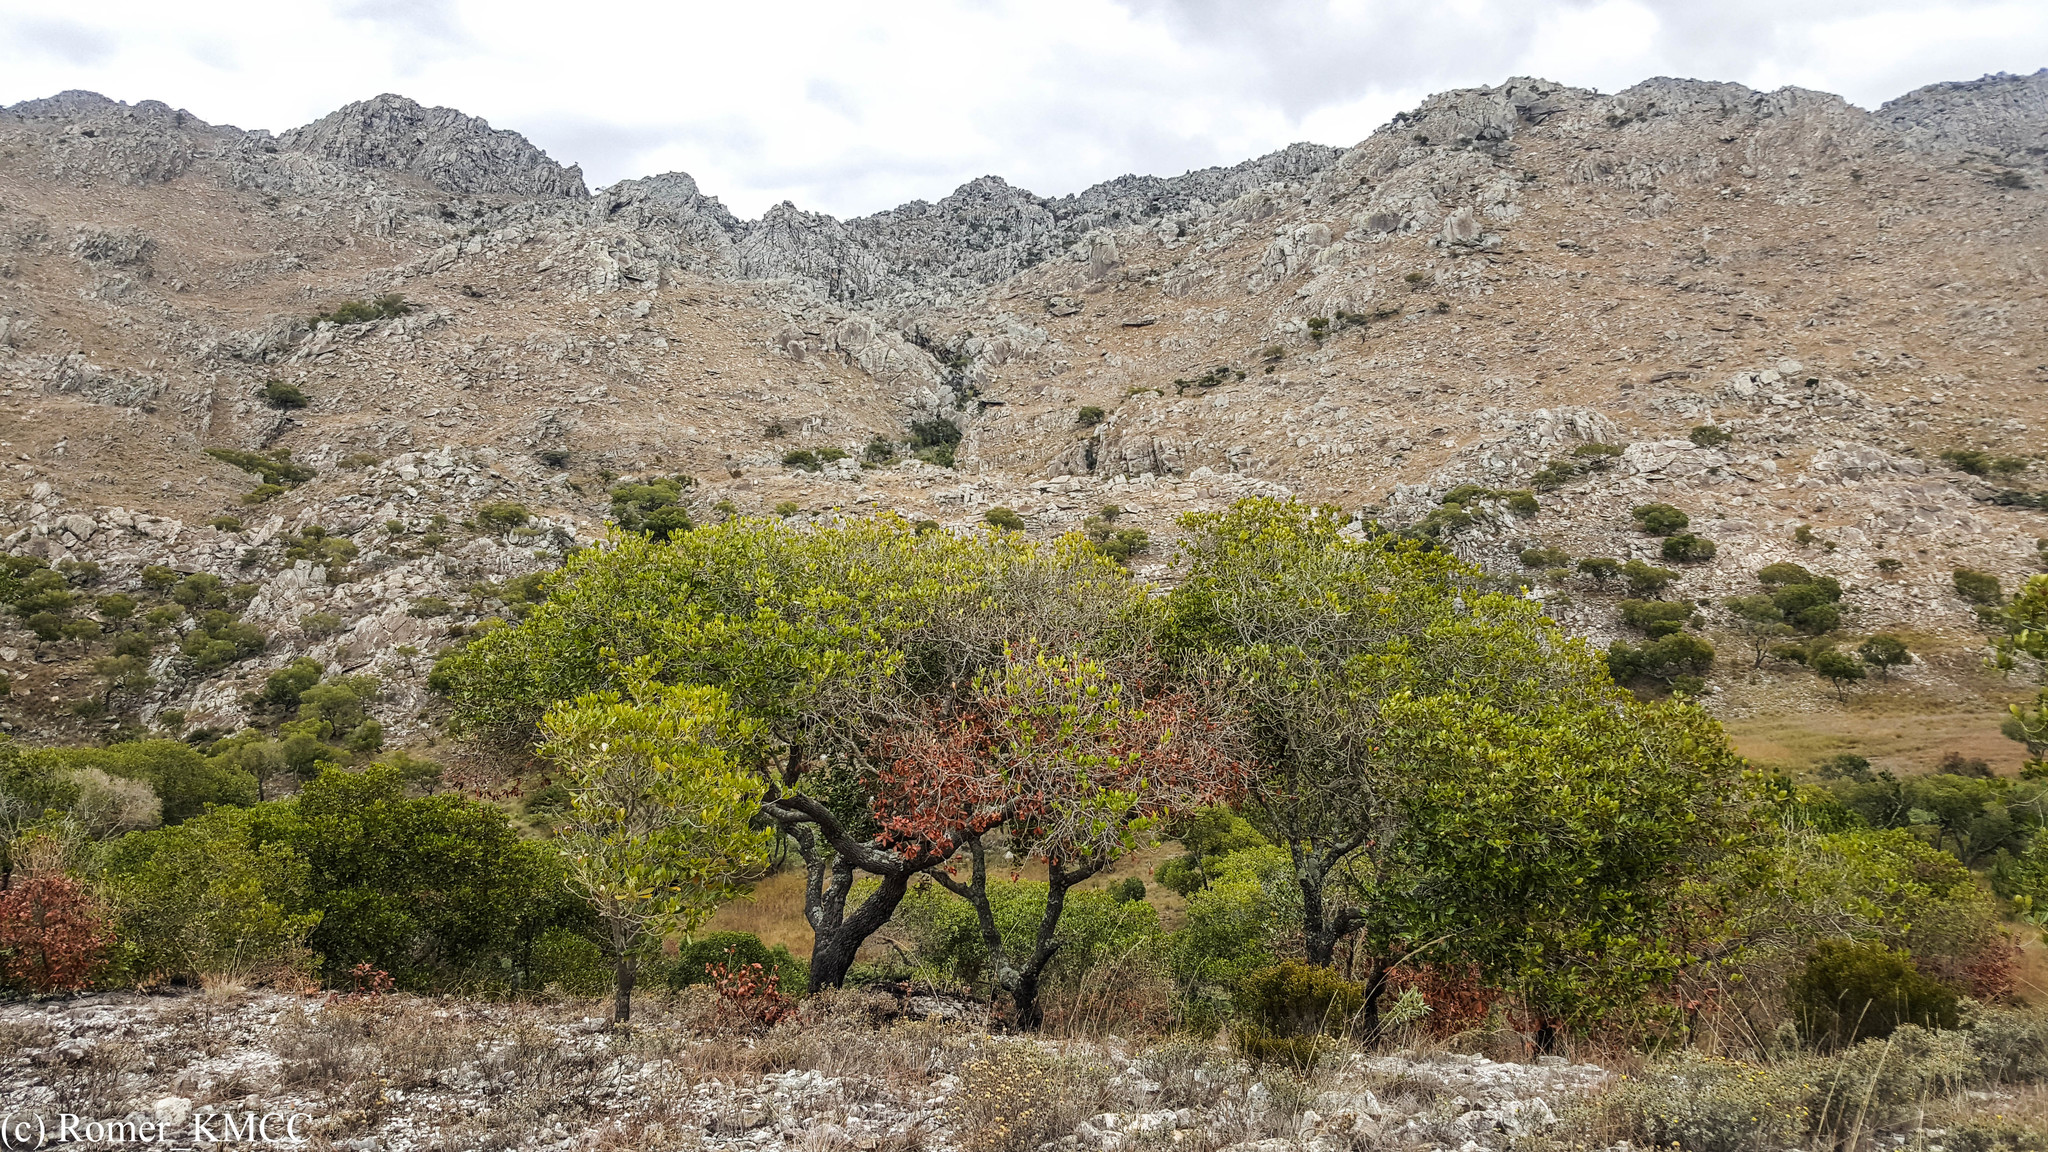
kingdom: Plantae
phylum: Tracheophyta
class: Magnoliopsida
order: Malpighiales
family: Phyllanthaceae
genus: Uapaca
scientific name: Uapaca bojeri
